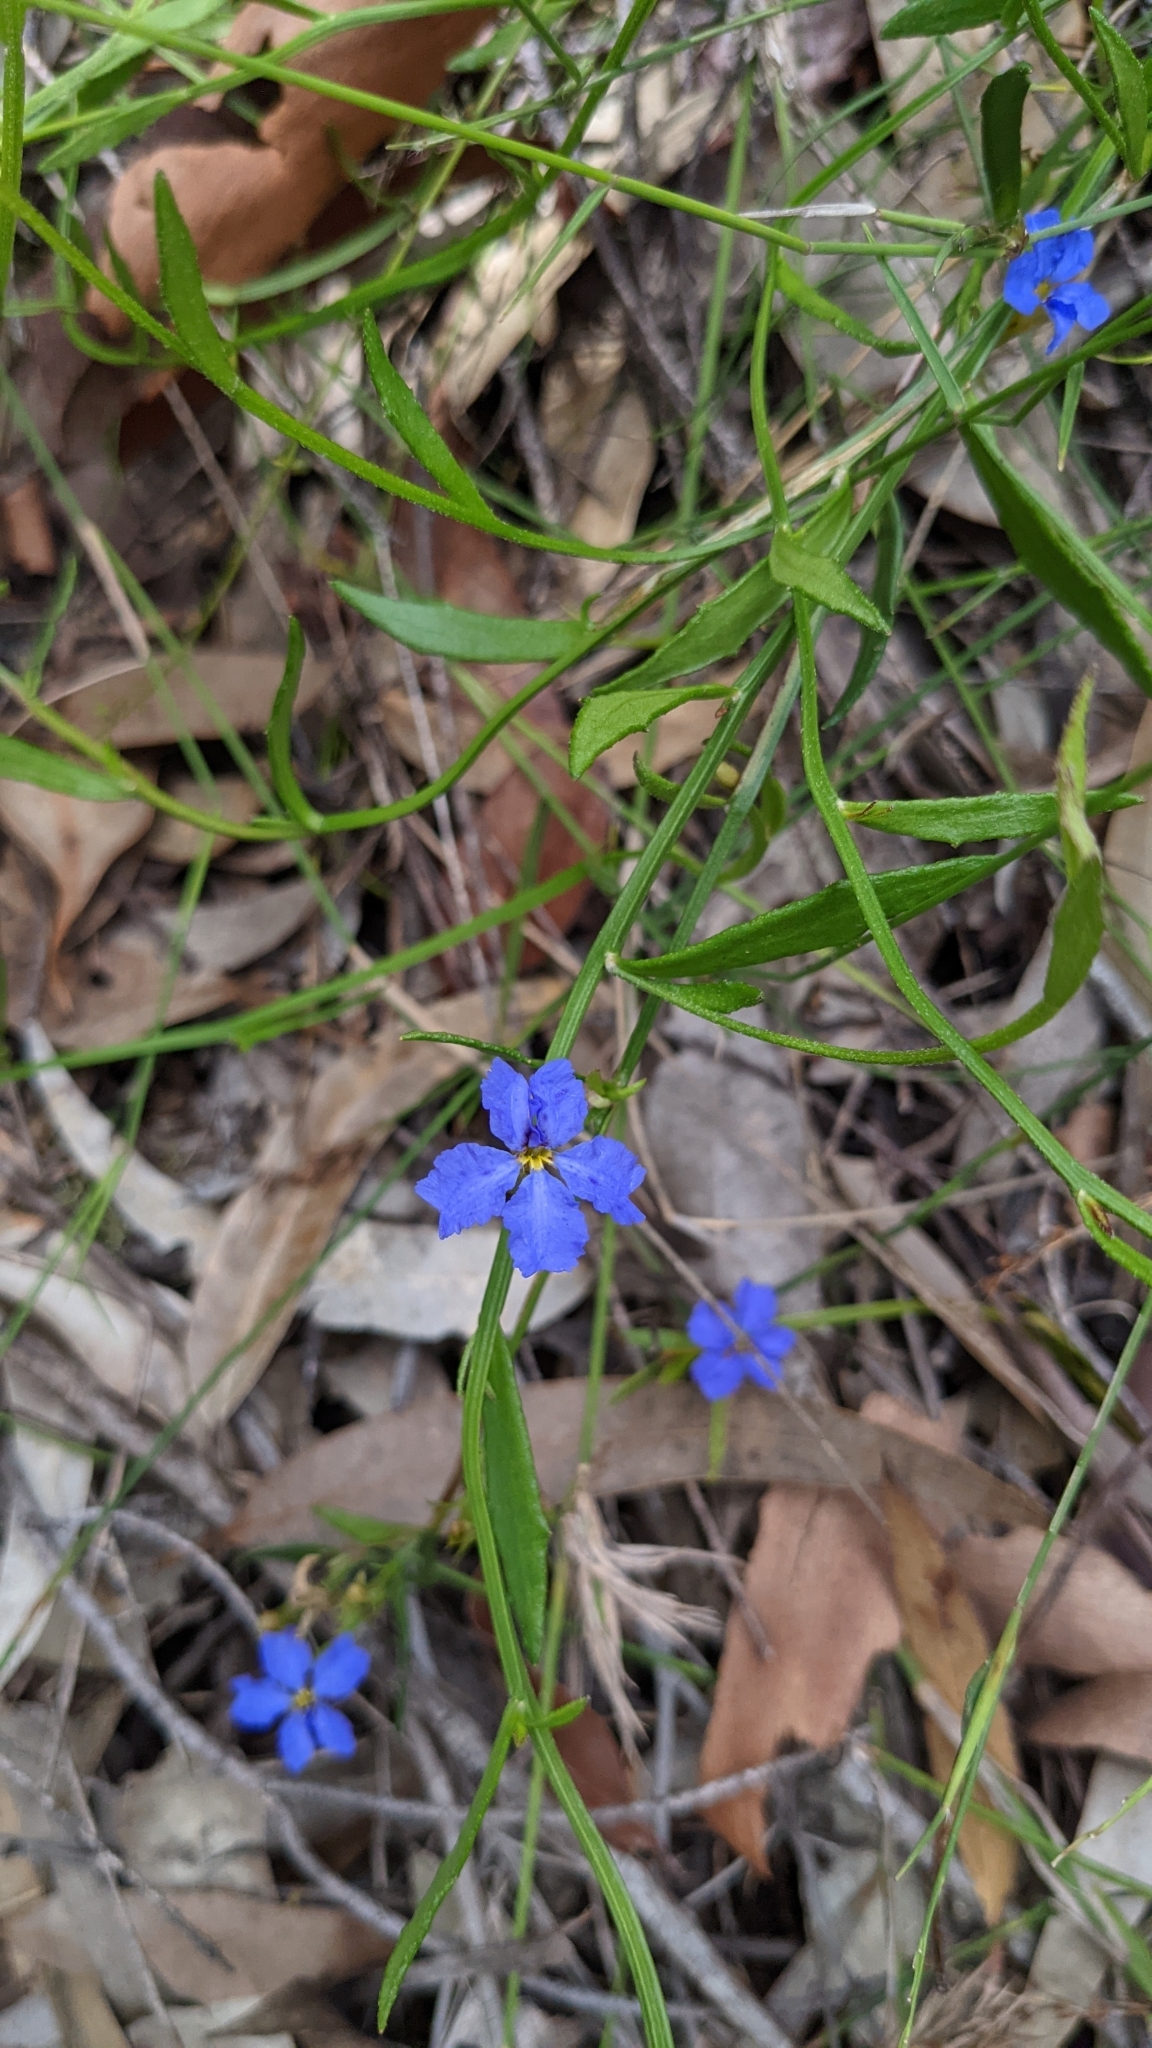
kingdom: Plantae
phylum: Tracheophyta
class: Magnoliopsida
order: Asterales
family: Goodeniaceae
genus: Dampiera
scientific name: Dampiera stricta
